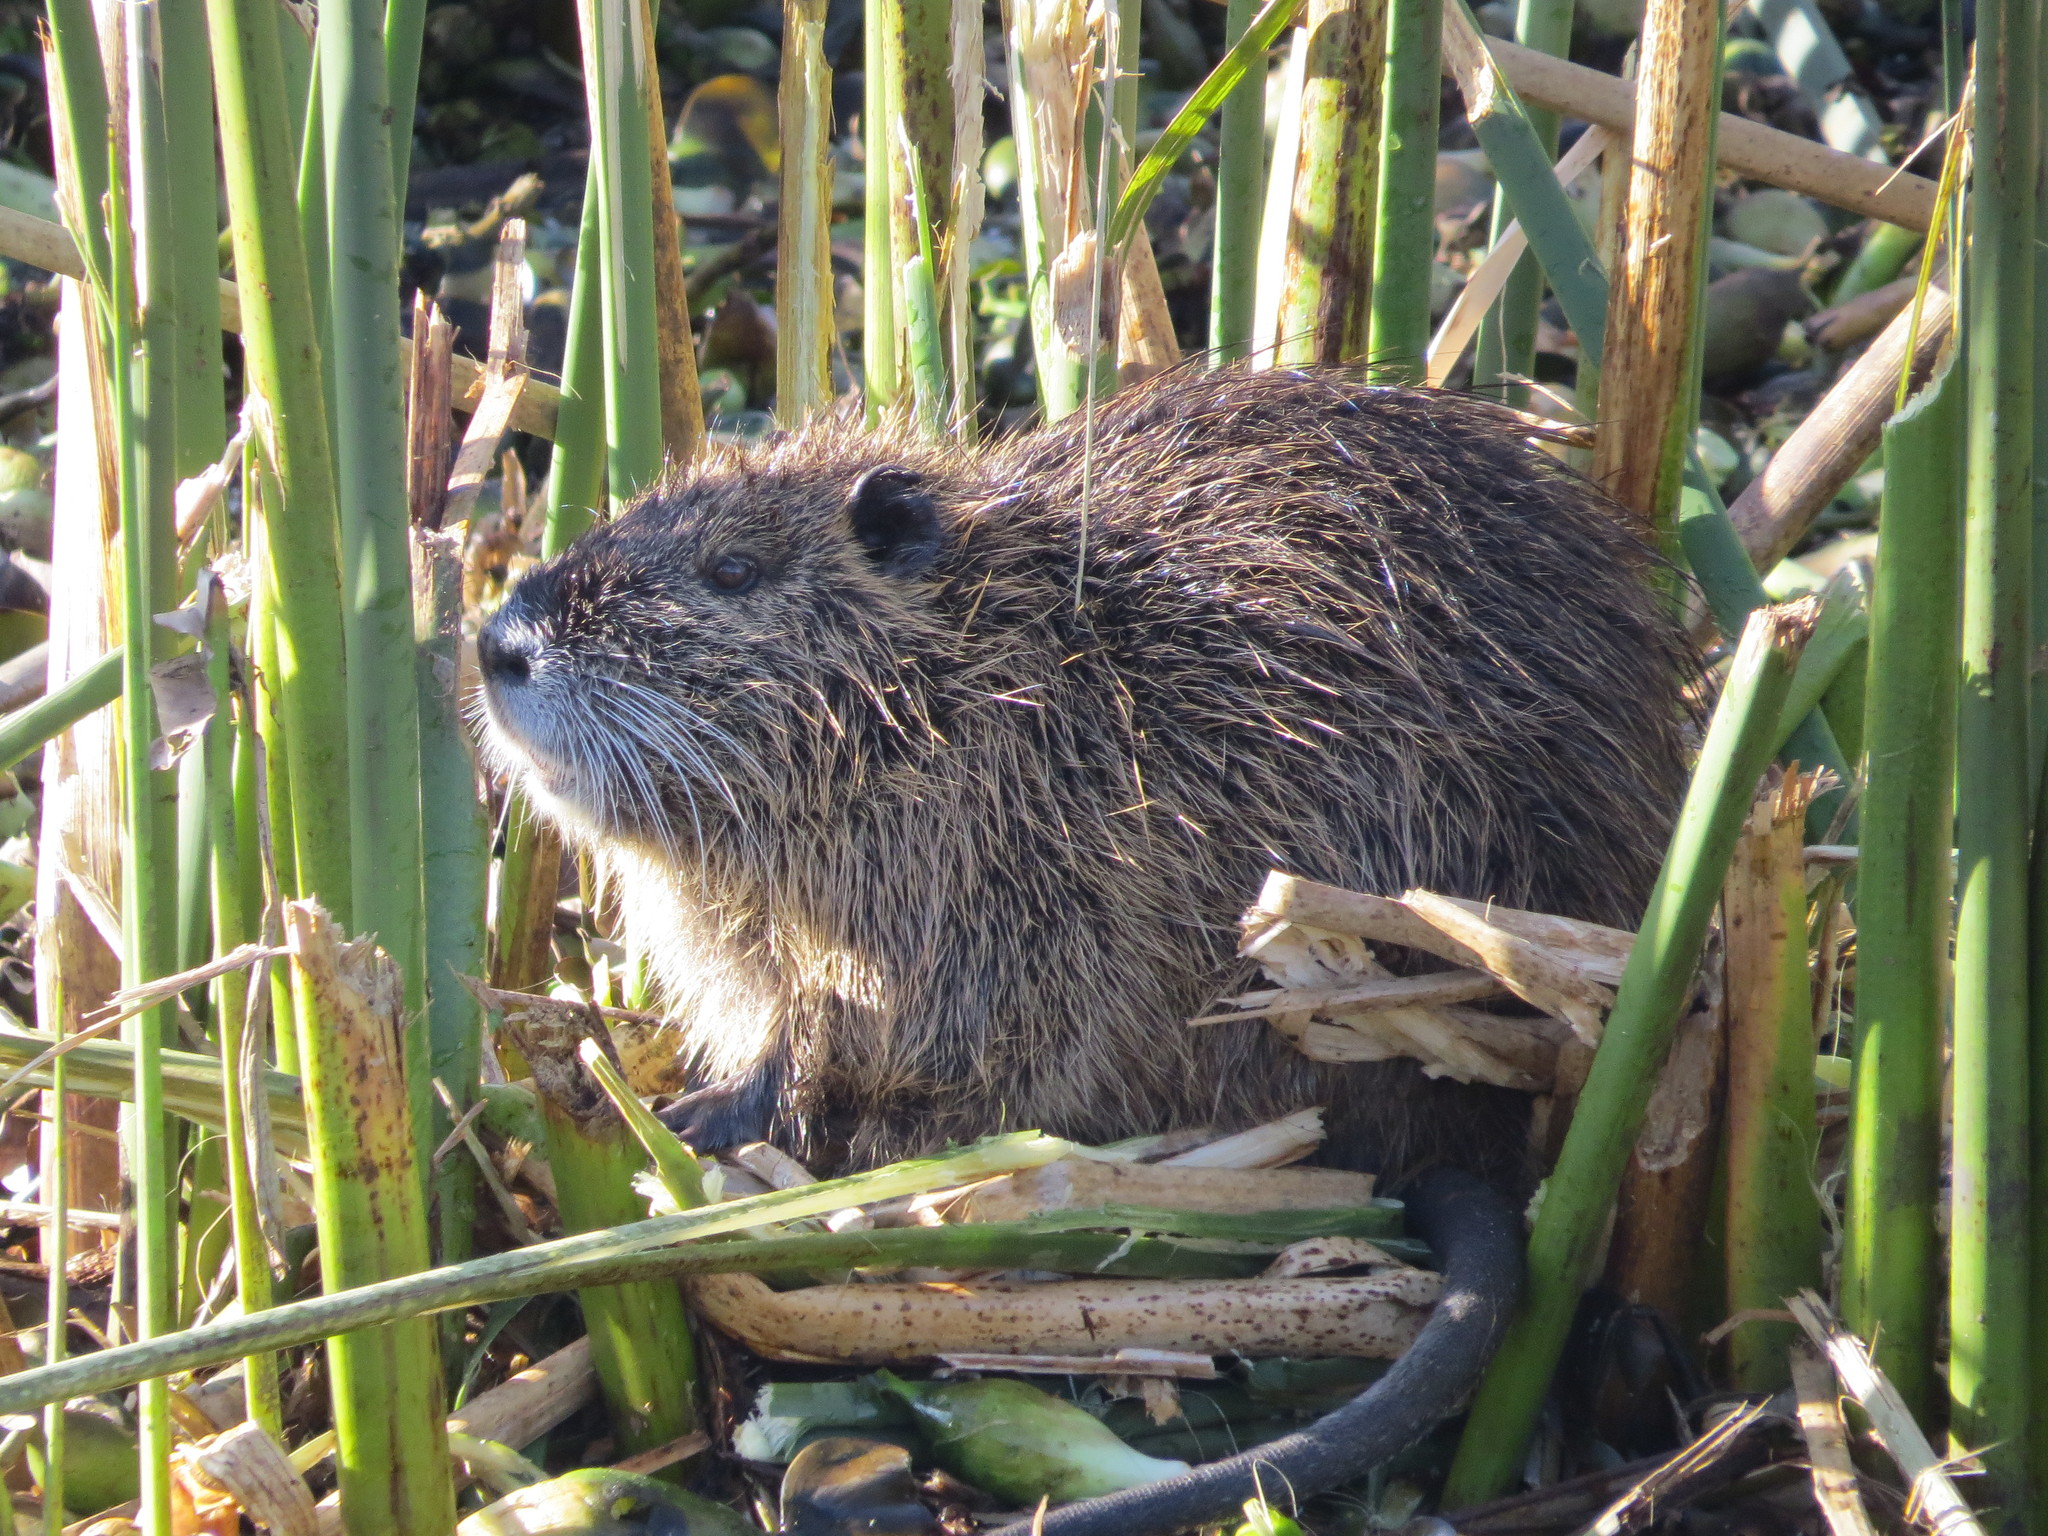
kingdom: Animalia
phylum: Chordata
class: Mammalia
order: Rodentia
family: Myocastoridae
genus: Myocastor
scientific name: Myocastor coypus
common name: Coypu
